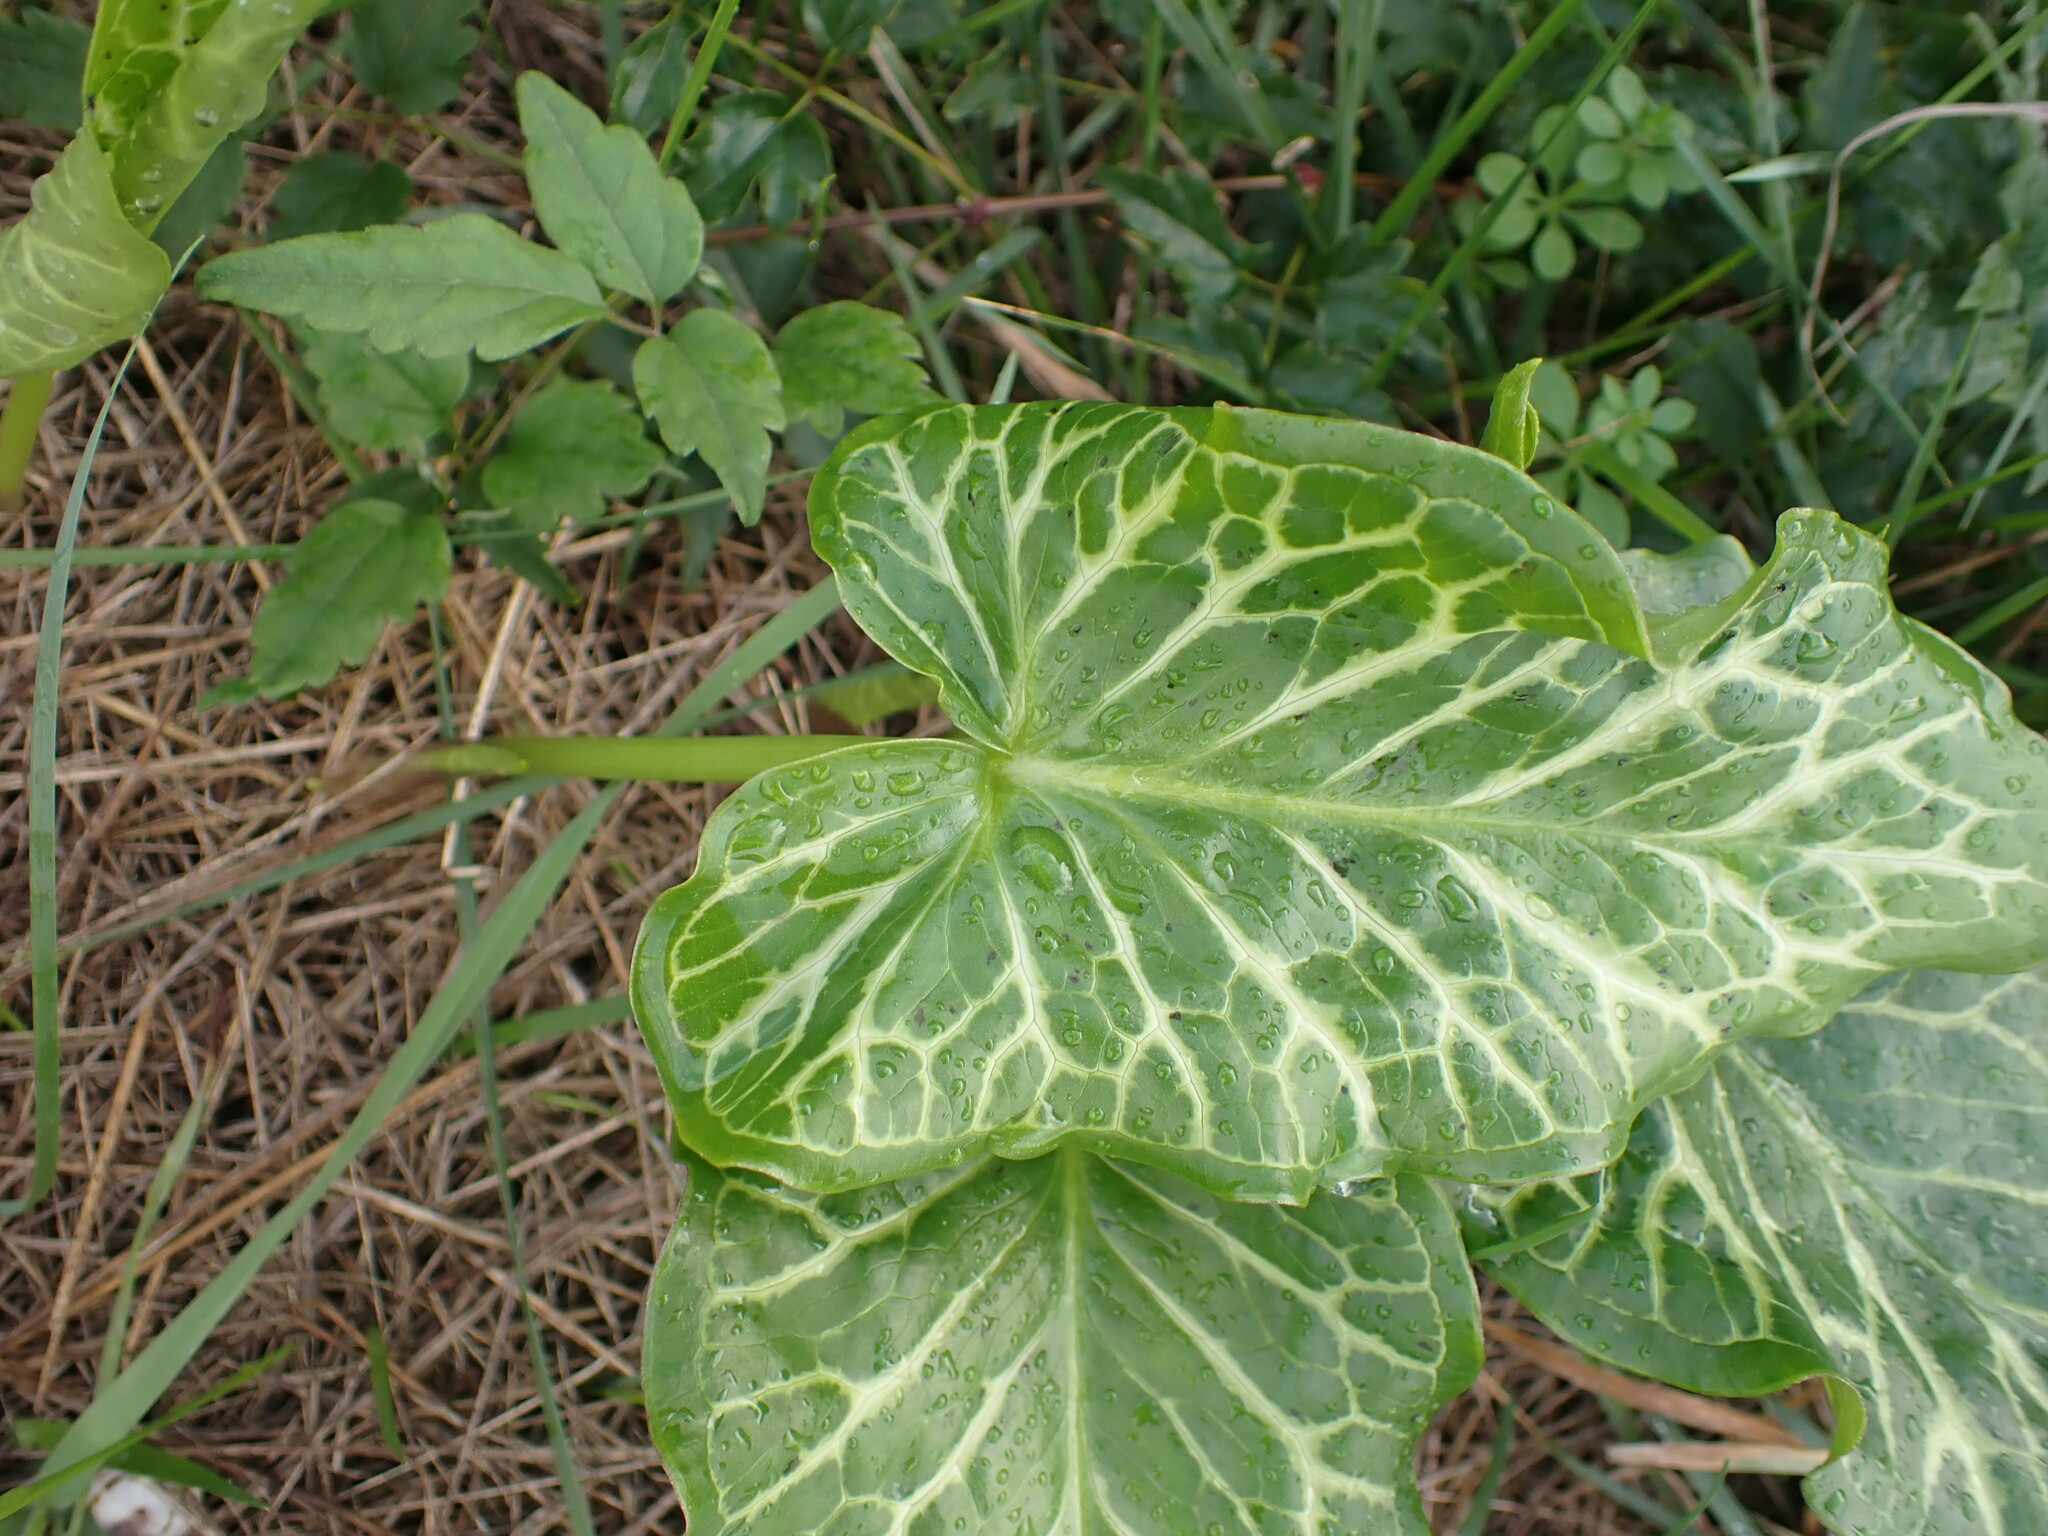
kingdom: Plantae
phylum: Tracheophyta
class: Liliopsida
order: Alismatales
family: Araceae
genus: Arum
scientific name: Arum italicum
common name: Italian lords-and-ladies
